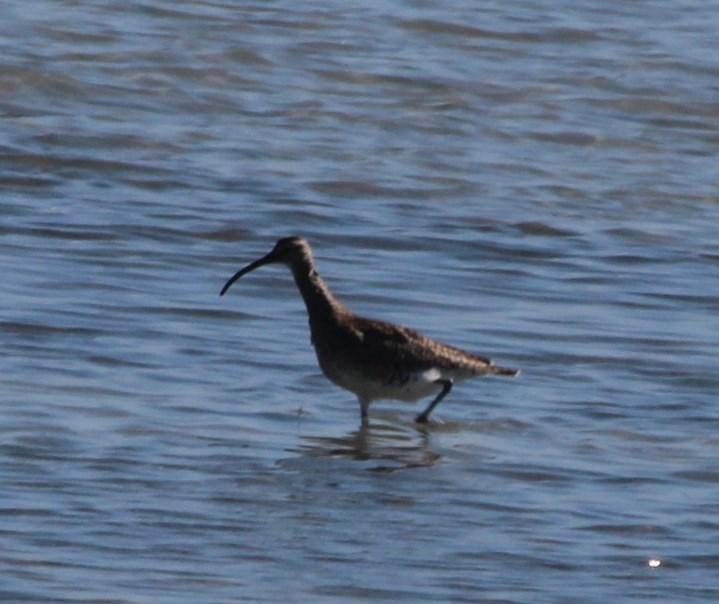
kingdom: Animalia
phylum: Chordata
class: Aves
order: Charadriiformes
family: Scolopacidae
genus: Numenius
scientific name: Numenius phaeopus
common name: Whimbrel
